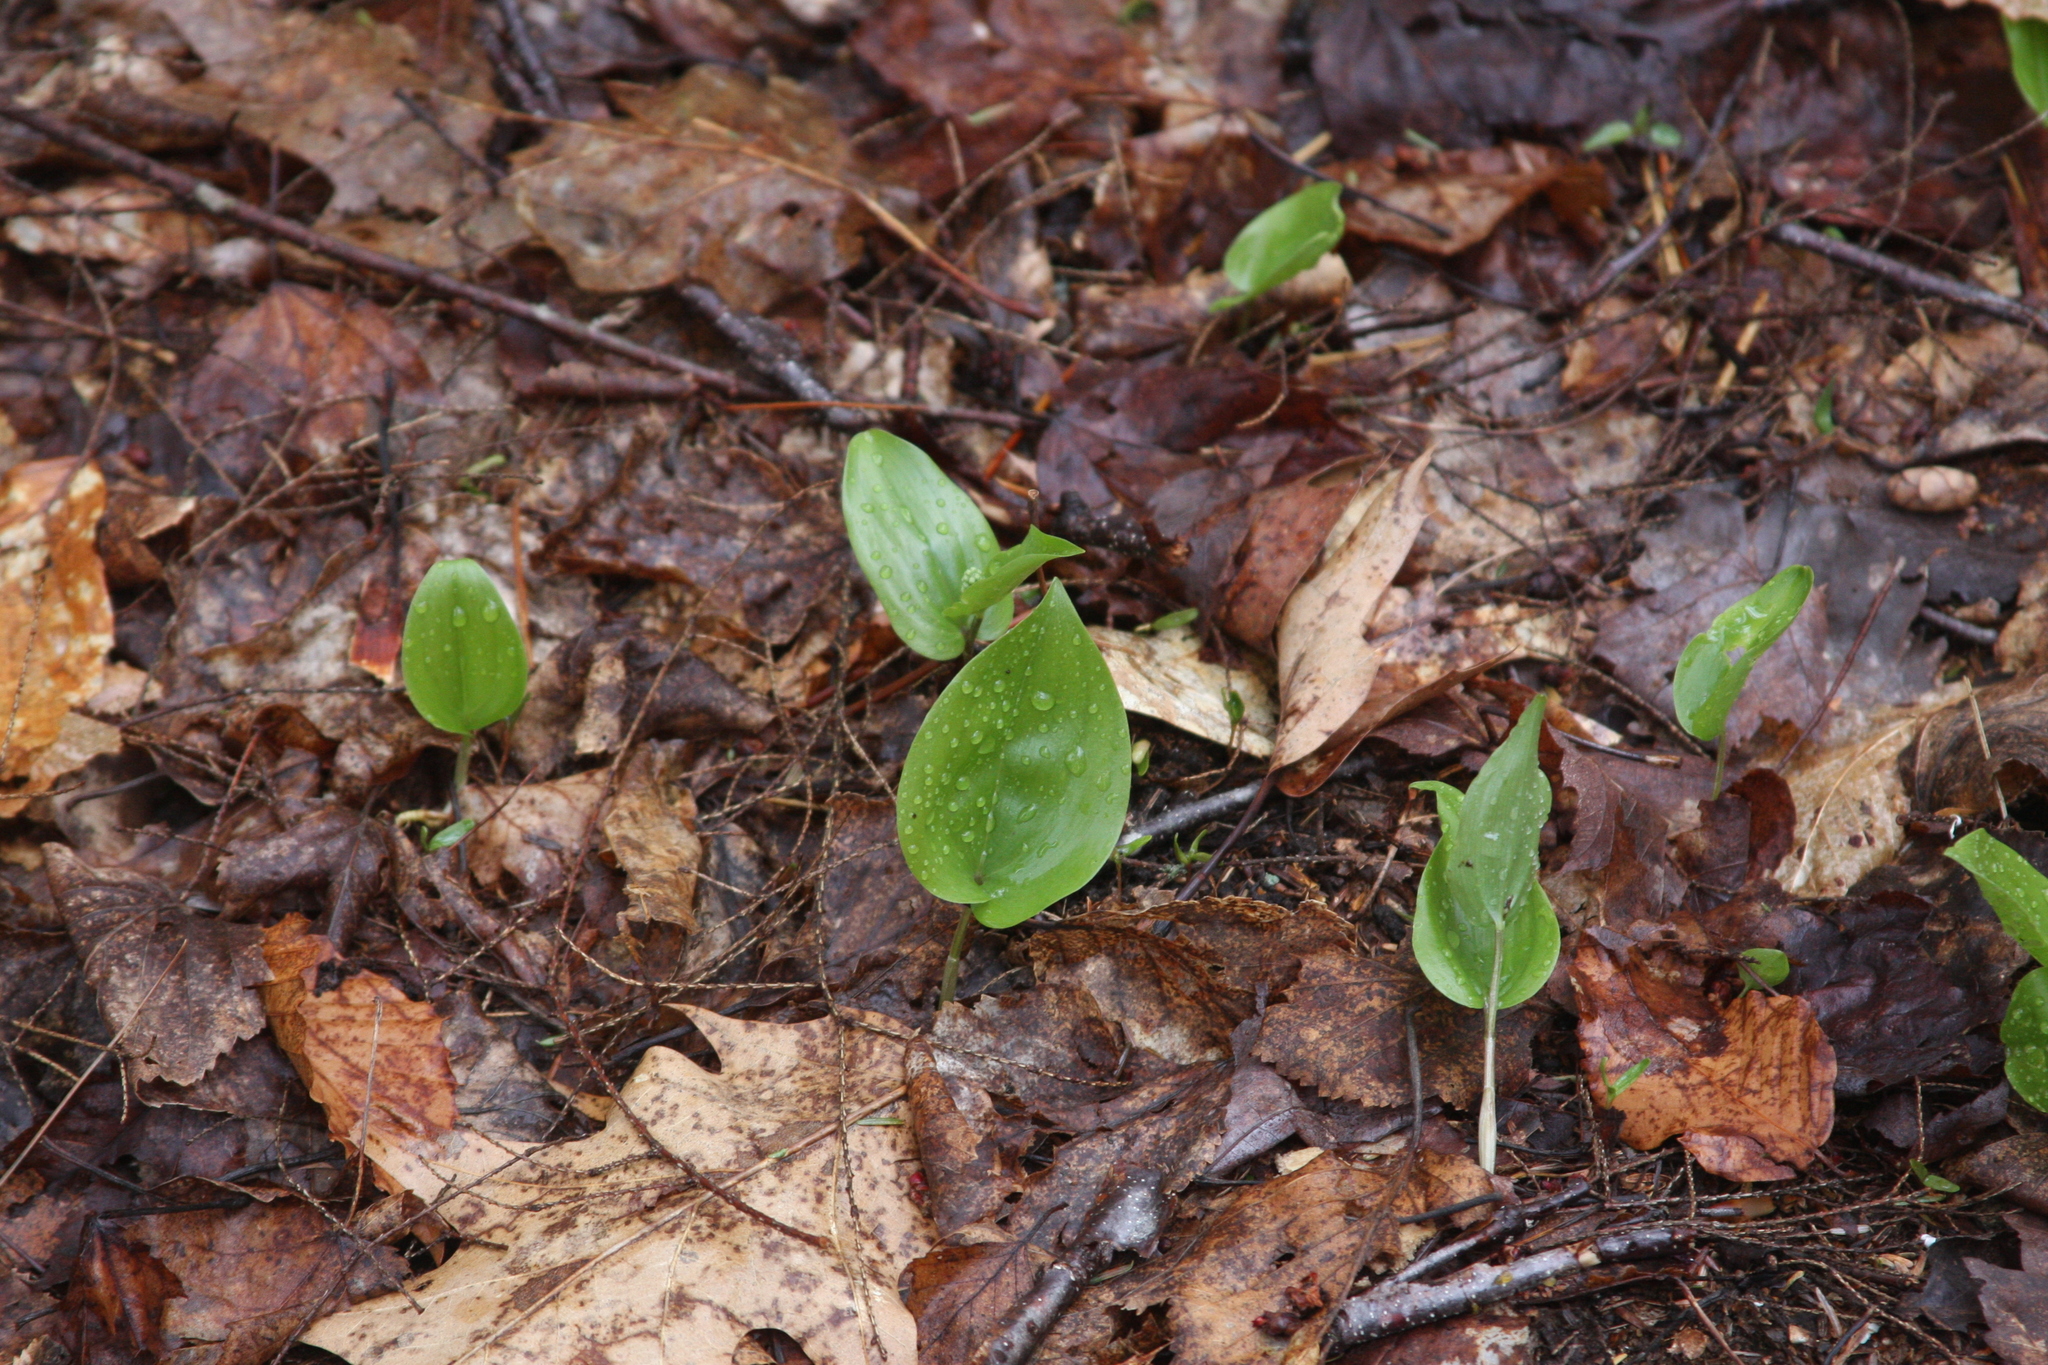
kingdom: Plantae
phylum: Tracheophyta
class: Liliopsida
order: Asparagales
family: Asparagaceae
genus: Maianthemum
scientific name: Maianthemum canadense
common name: False lily-of-the-valley
